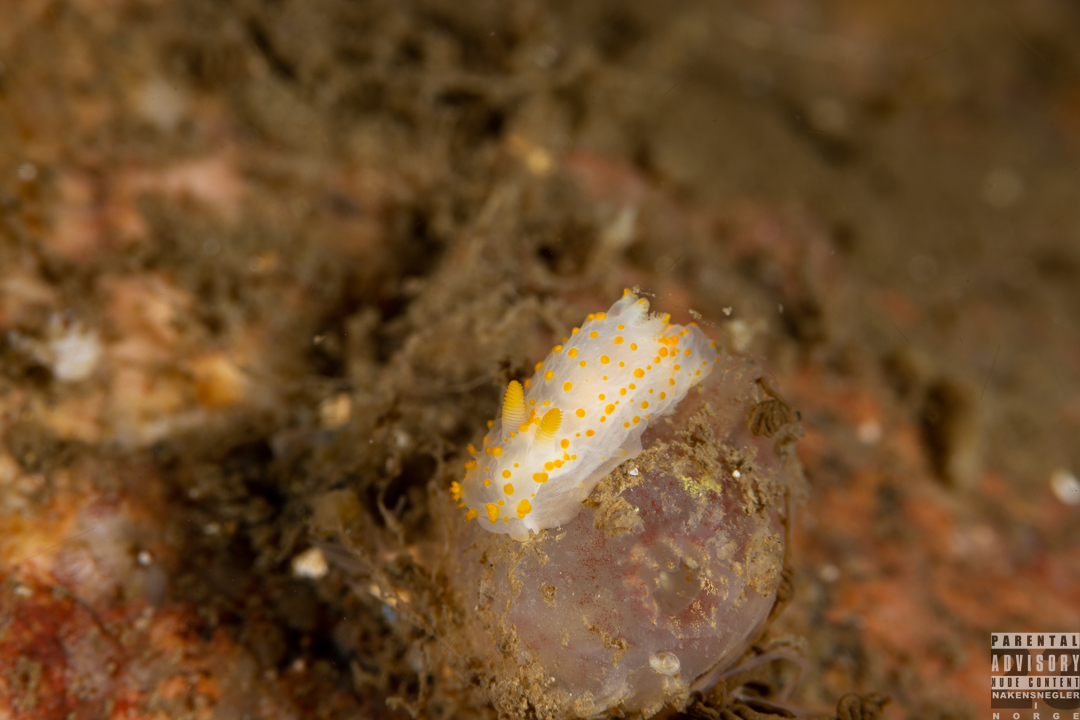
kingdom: Animalia
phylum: Mollusca
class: Gastropoda
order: Nudibranchia
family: Polyceridae
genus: Crimora
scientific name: Crimora papillata
